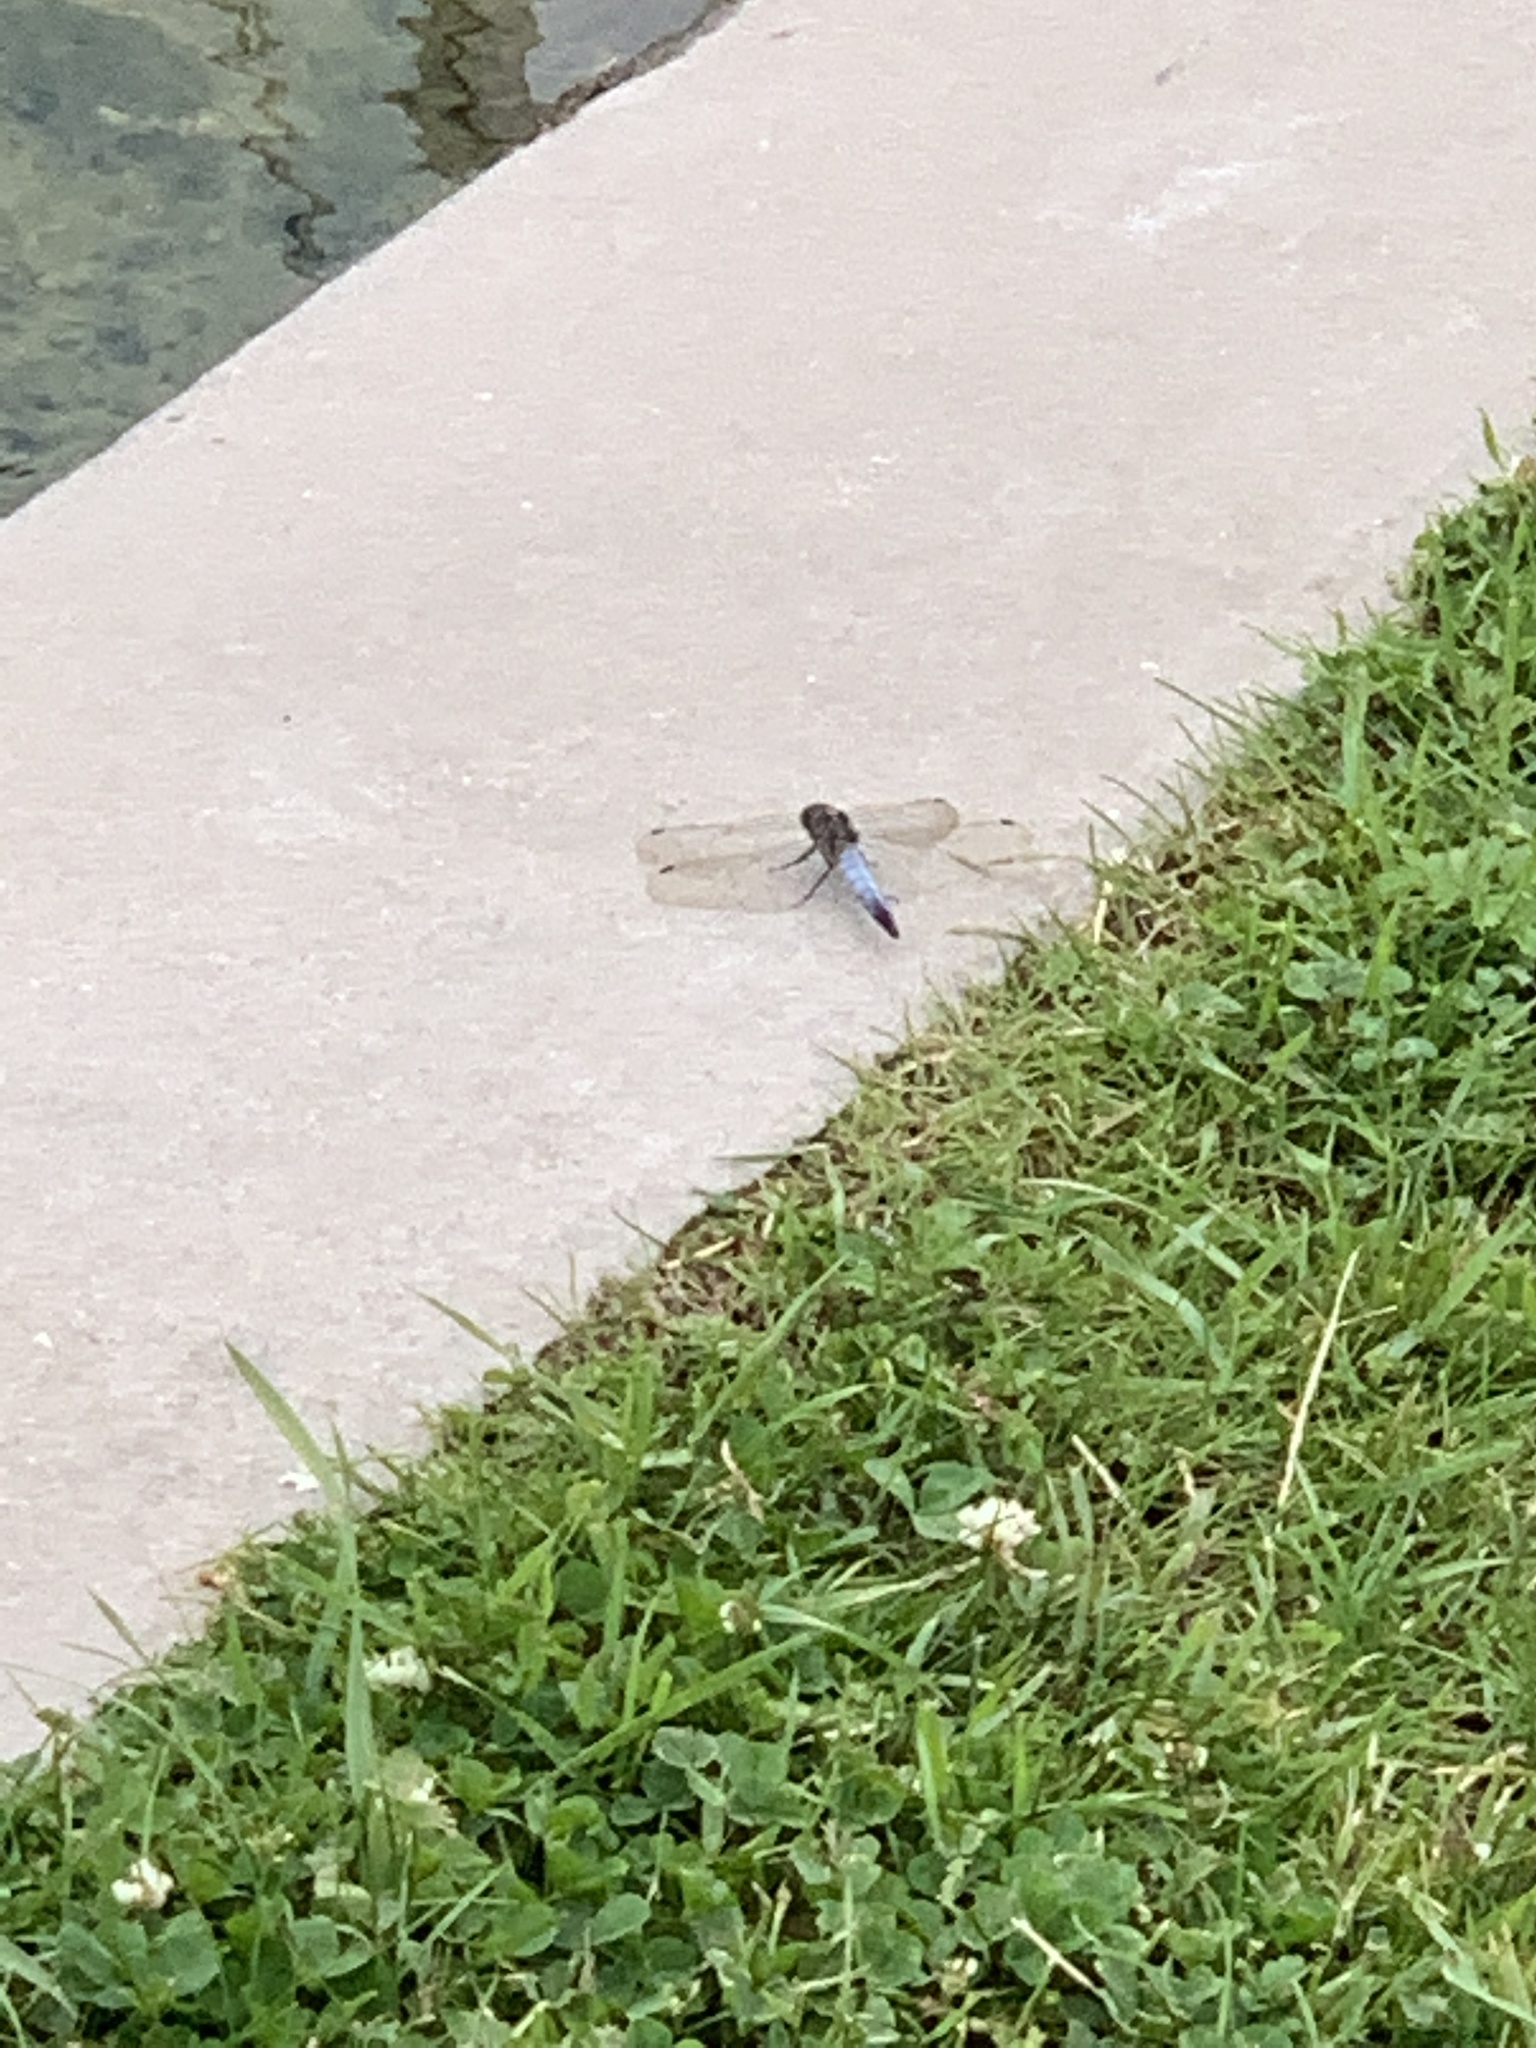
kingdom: Animalia
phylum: Arthropoda
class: Insecta
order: Odonata
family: Libellulidae
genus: Orthetrum
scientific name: Orthetrum cancellatum
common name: Black-tailed skimmer
